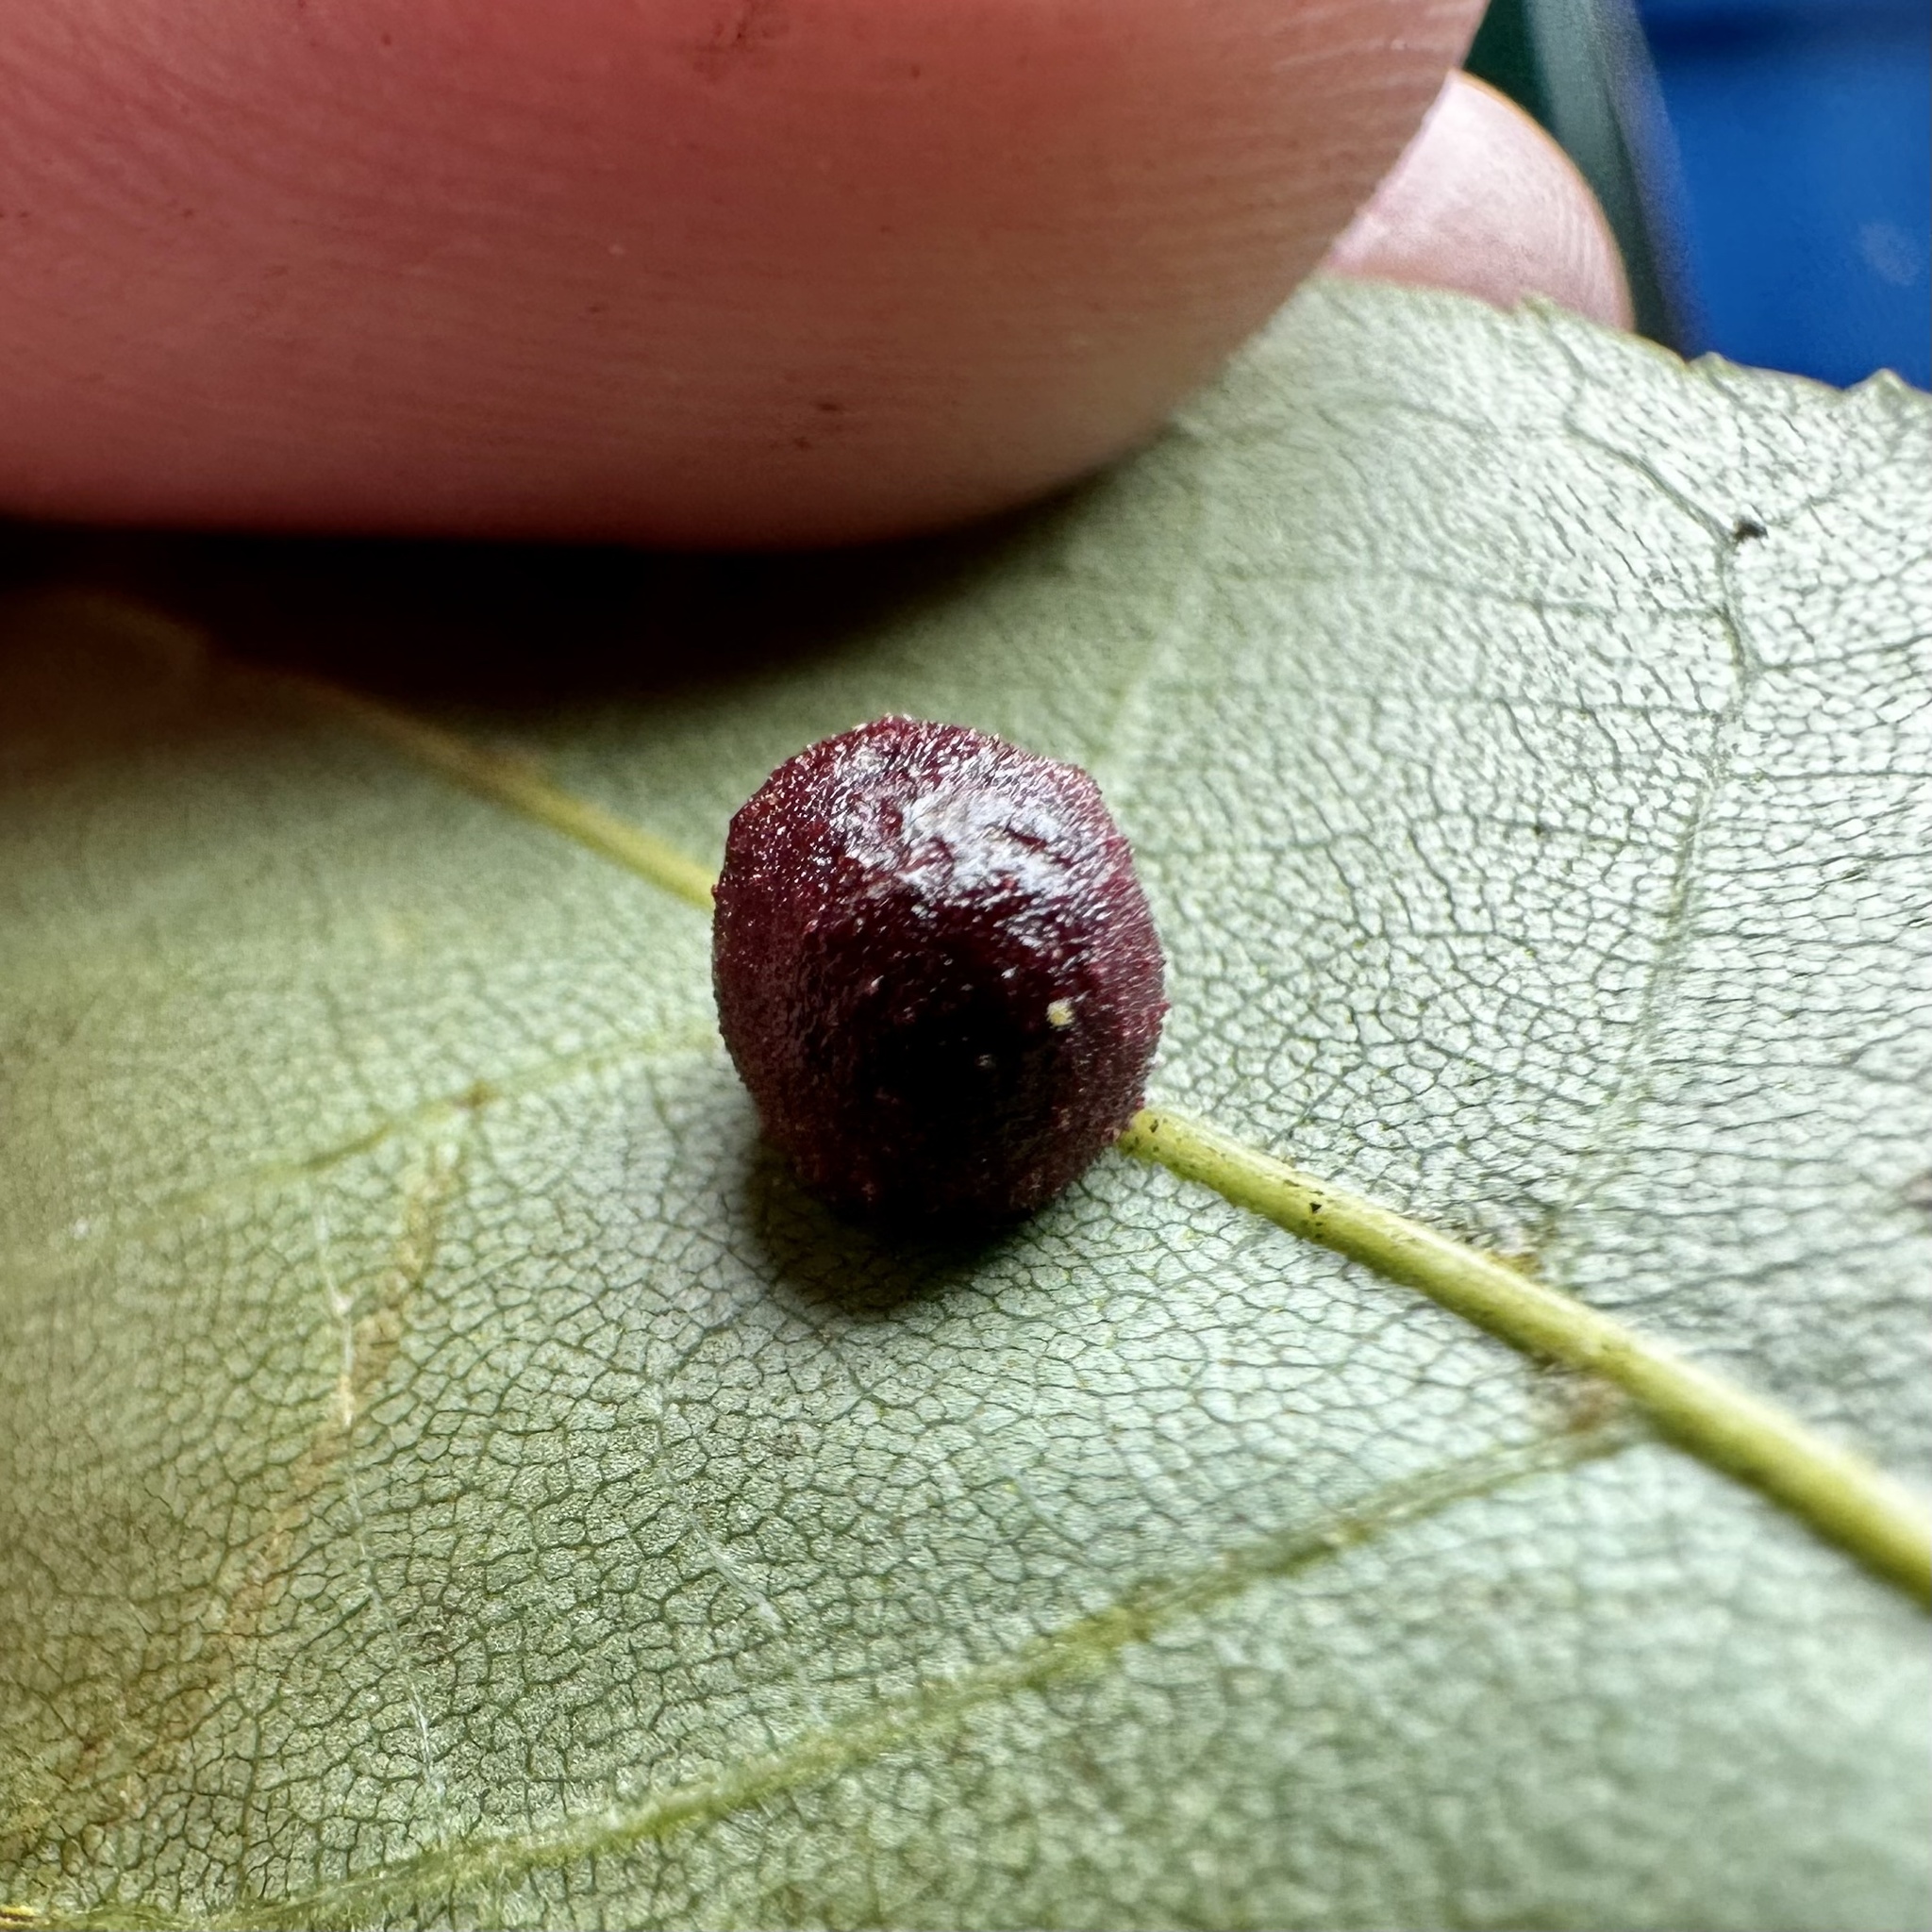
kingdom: Animalia
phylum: Arthropoda
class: Insecta
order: Diptera
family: Cecidomyiidae
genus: Caryomyia
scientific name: Caryomyia glebosa
